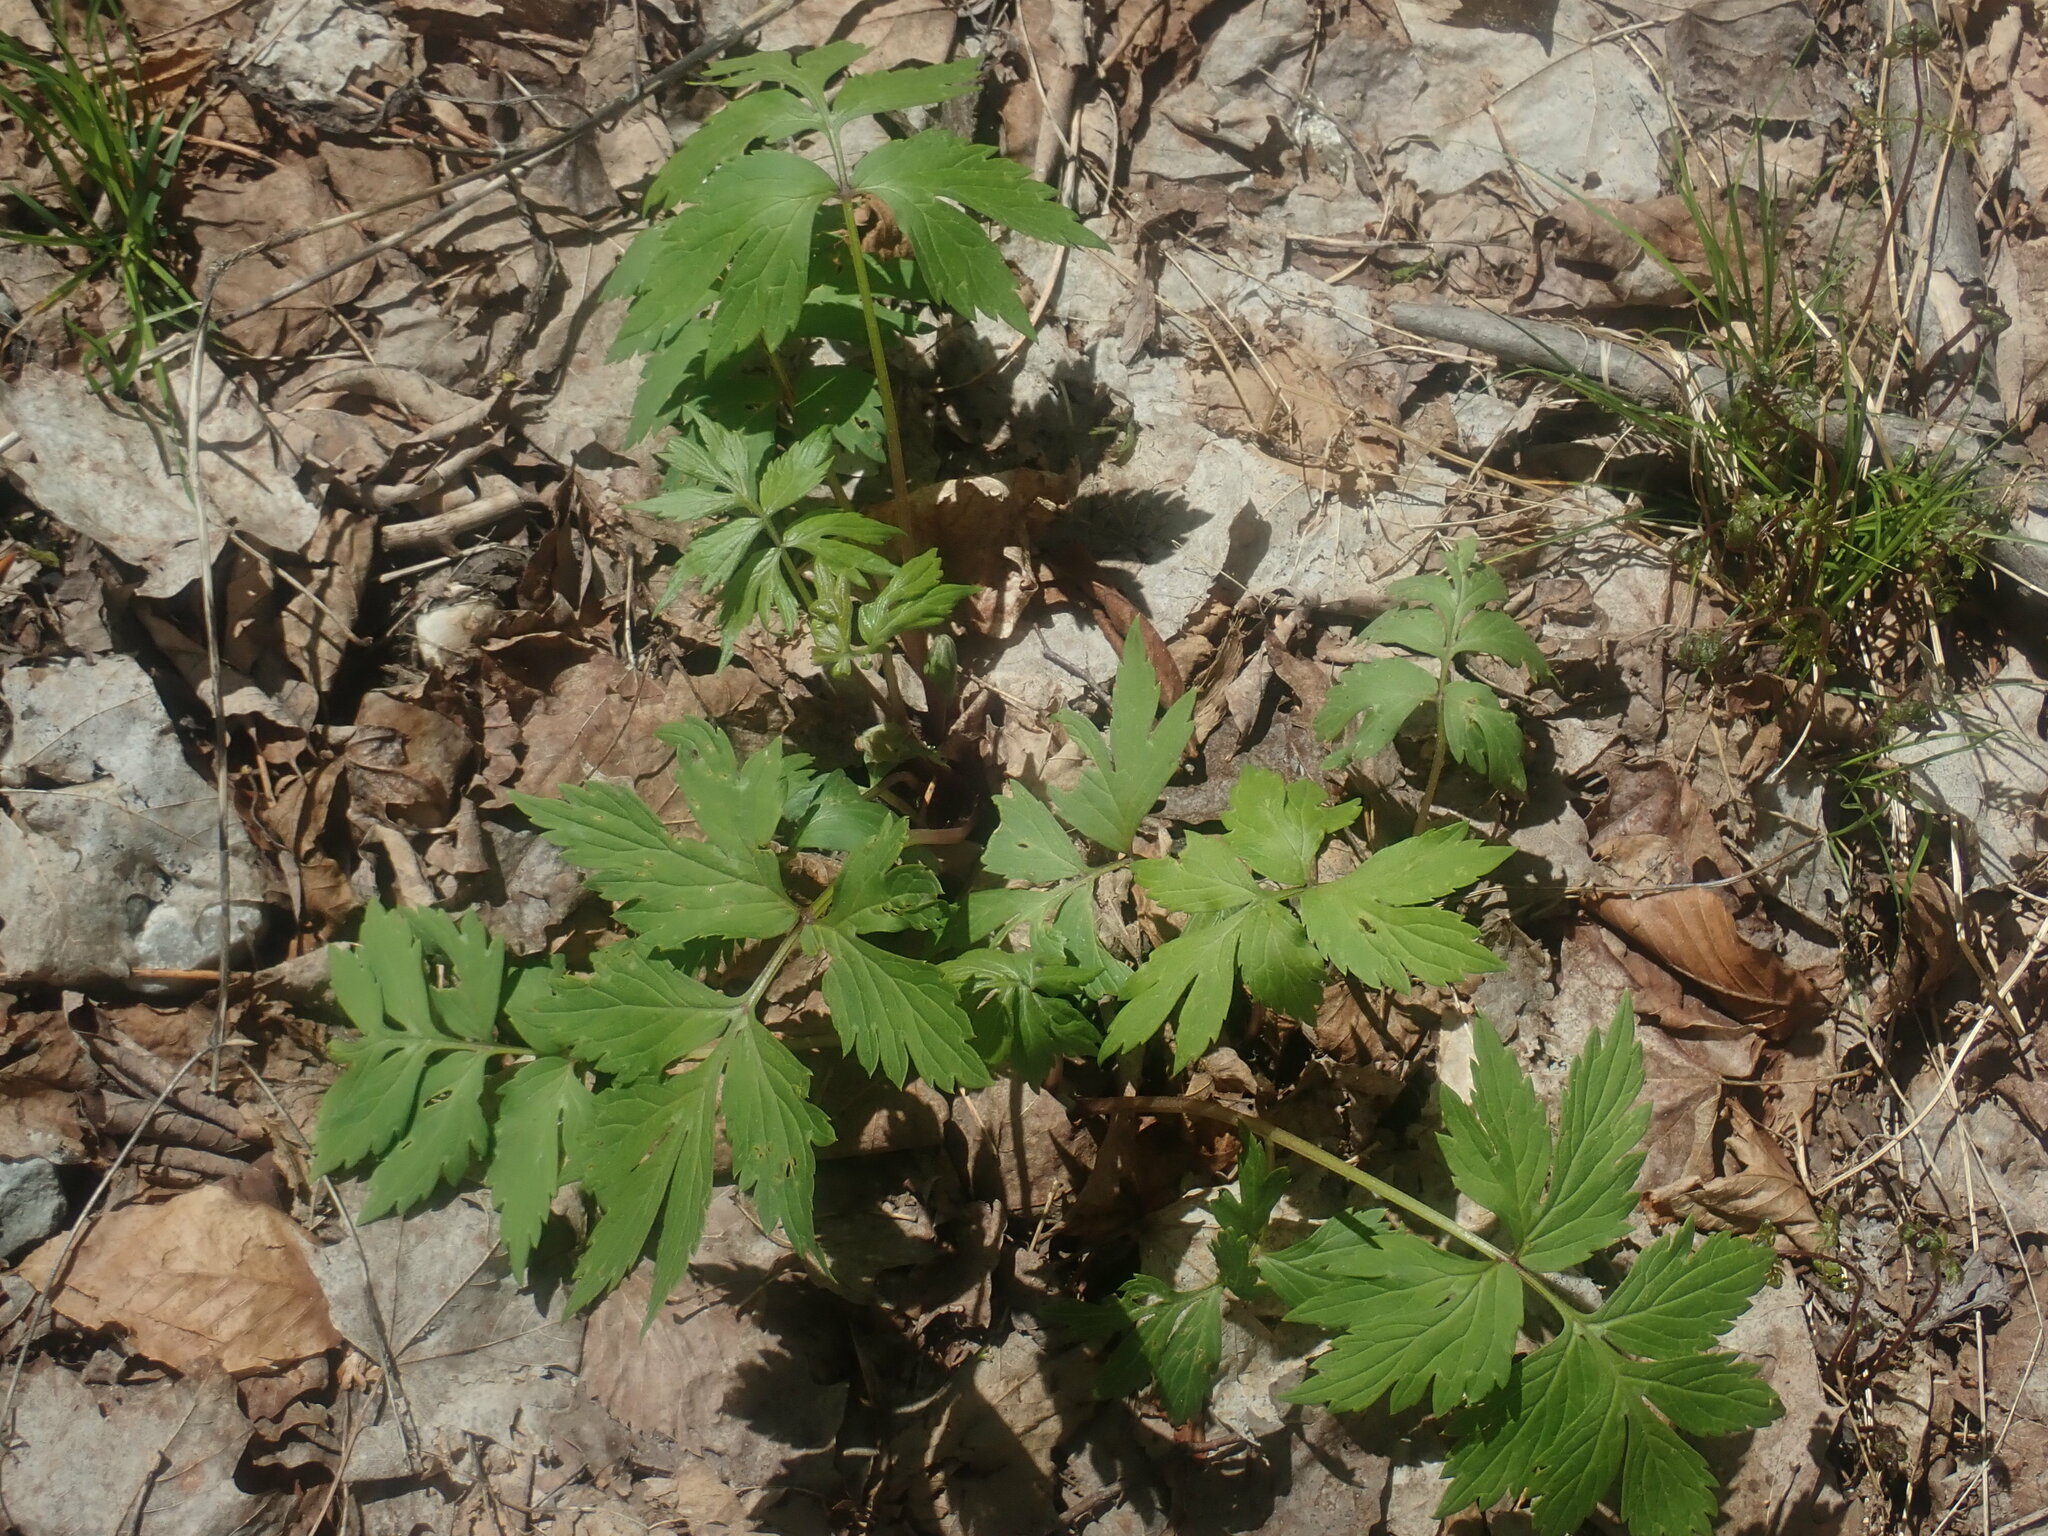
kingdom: Plantae
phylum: Tracheophyta
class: Magnoliopsida
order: Boraginales
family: Hydrophyllaceae
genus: Hydrophyllum
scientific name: Hydrophyllum virginianum
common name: Virginia waterleaf
